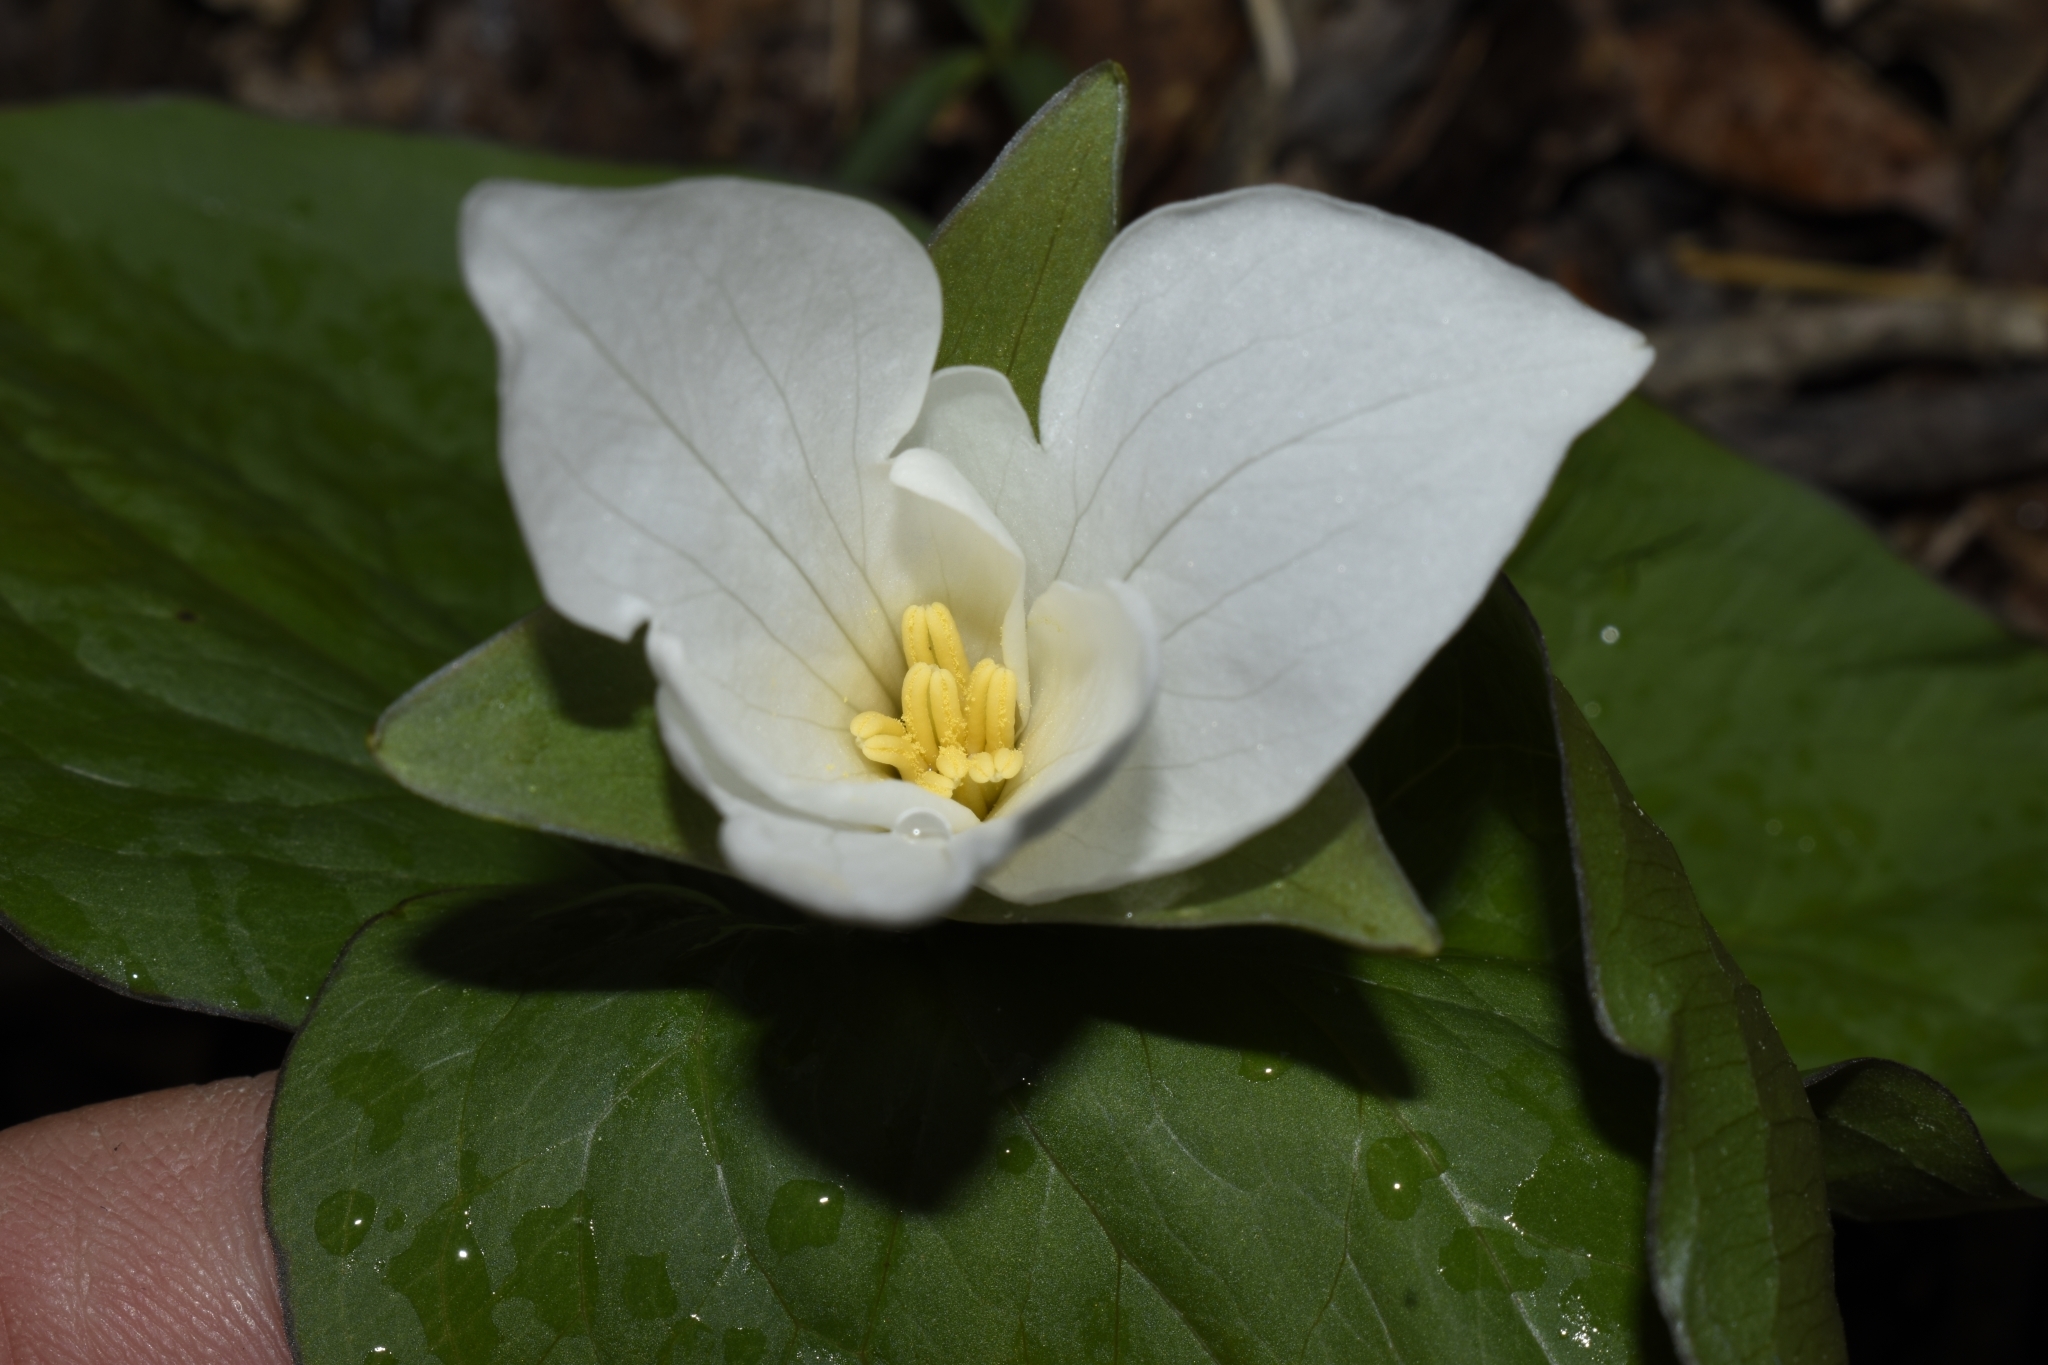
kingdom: Plantae
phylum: Tracheophyta
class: Liliopsida
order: Liliales
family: Melanthiaceae
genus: Trillium
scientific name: Trillium grandiflorum
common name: Great white trillium
